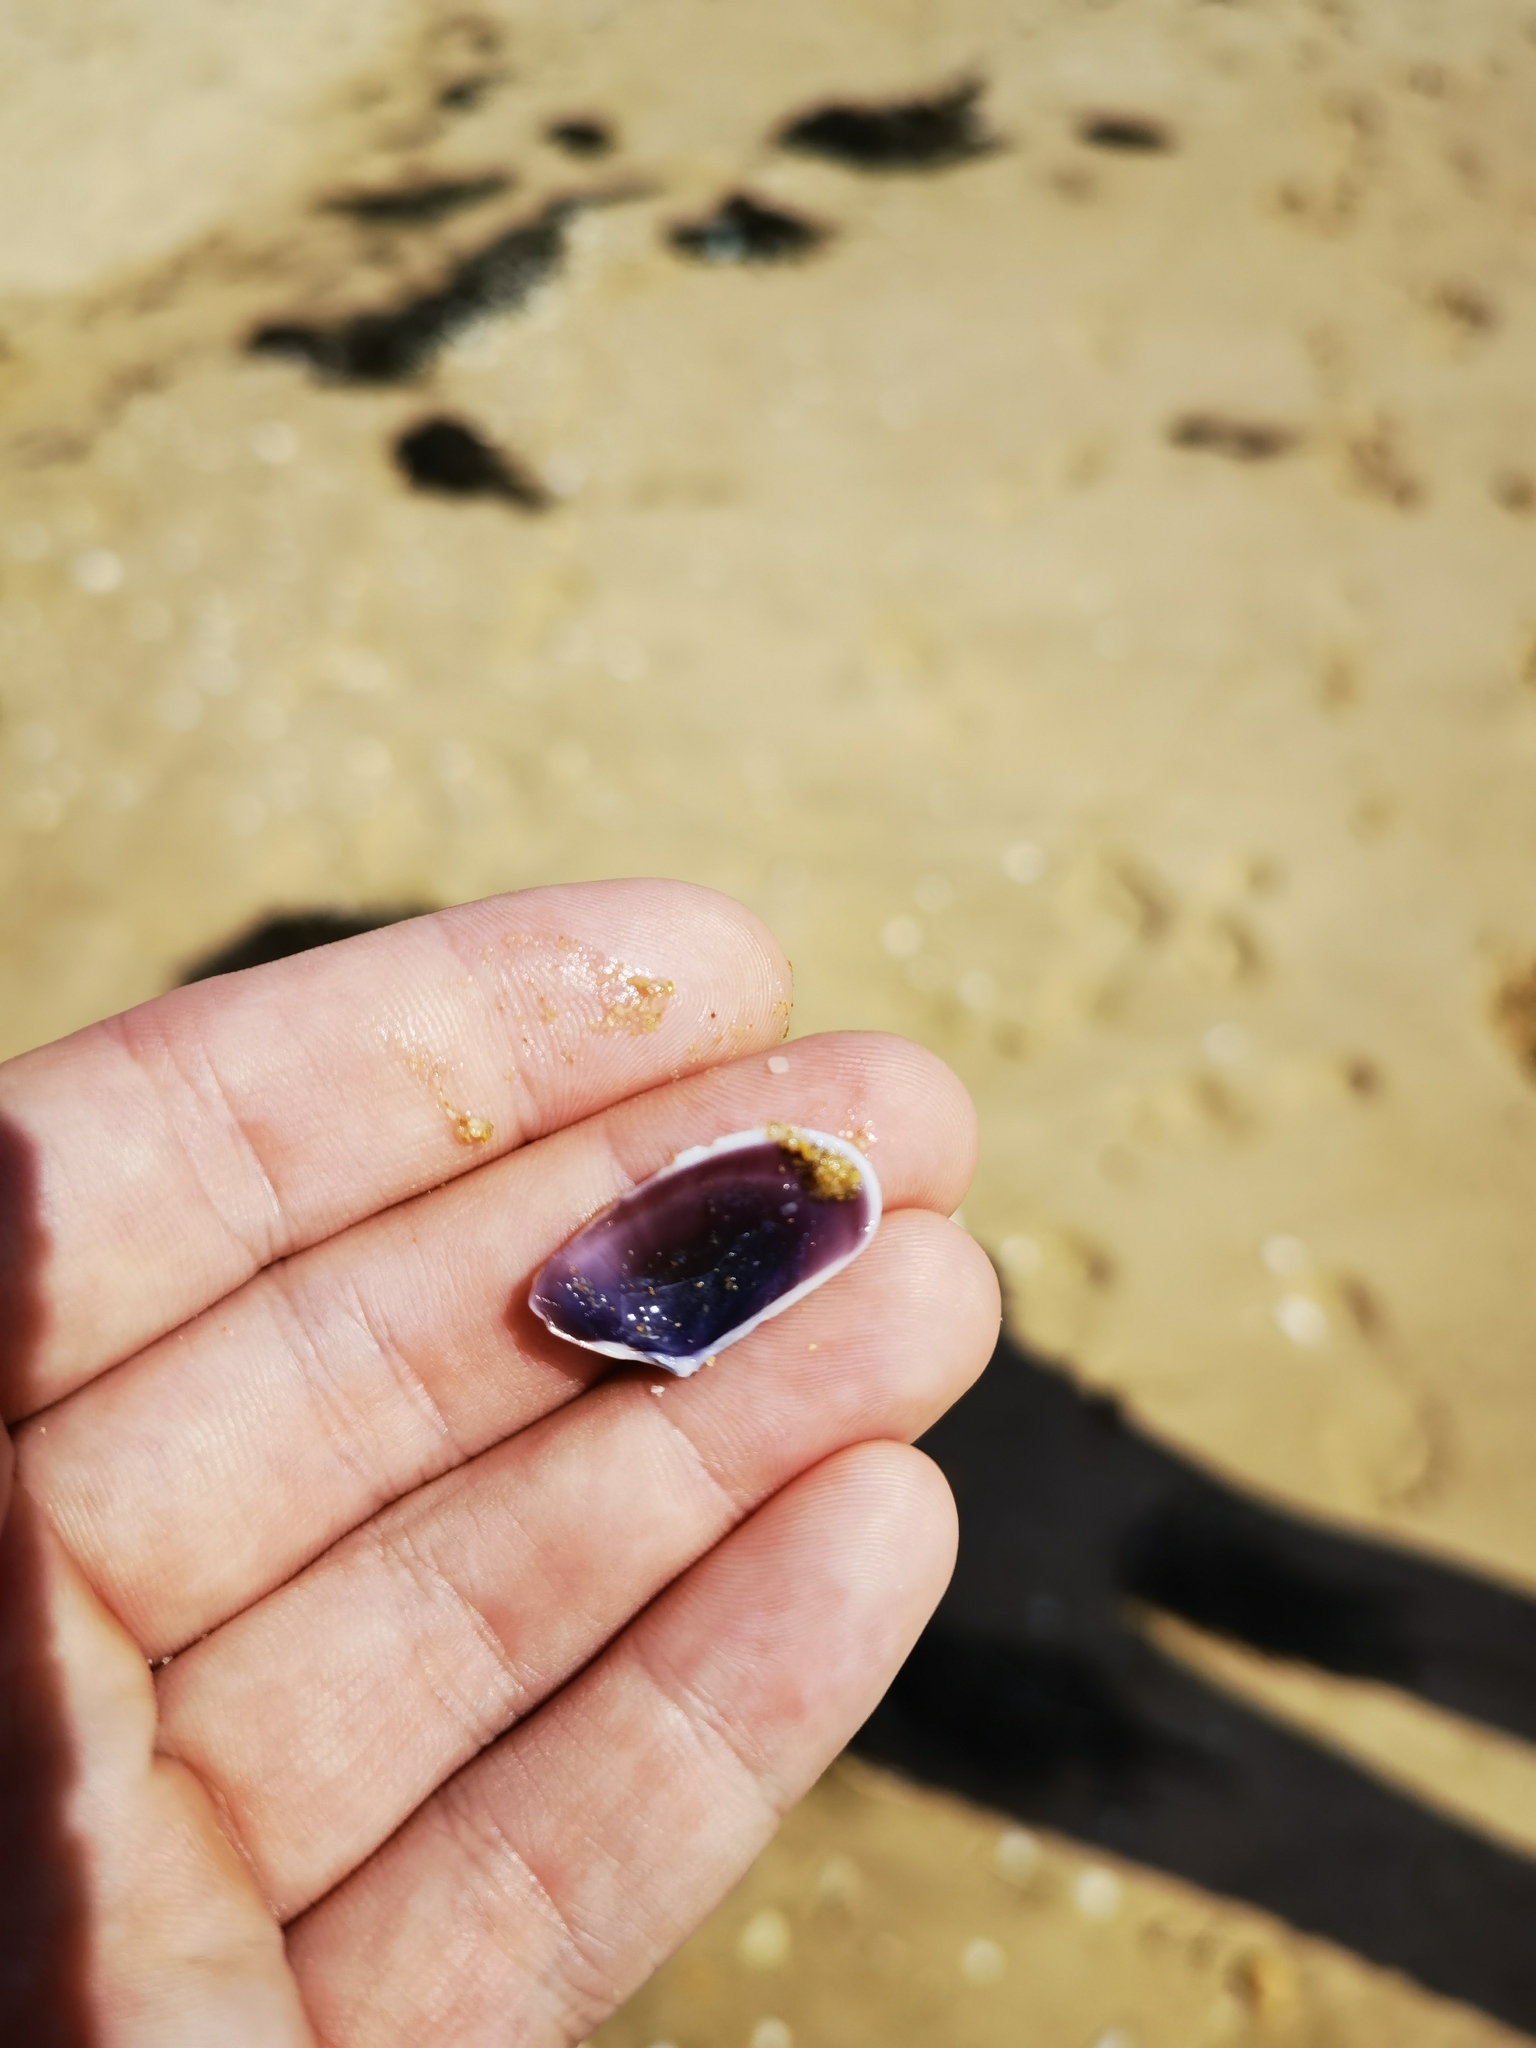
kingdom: Animalia
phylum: Mollusca
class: Bivalvia
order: Cardiida
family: Donacidae
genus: Donax
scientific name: Donax trunculus
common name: Truncate donax
